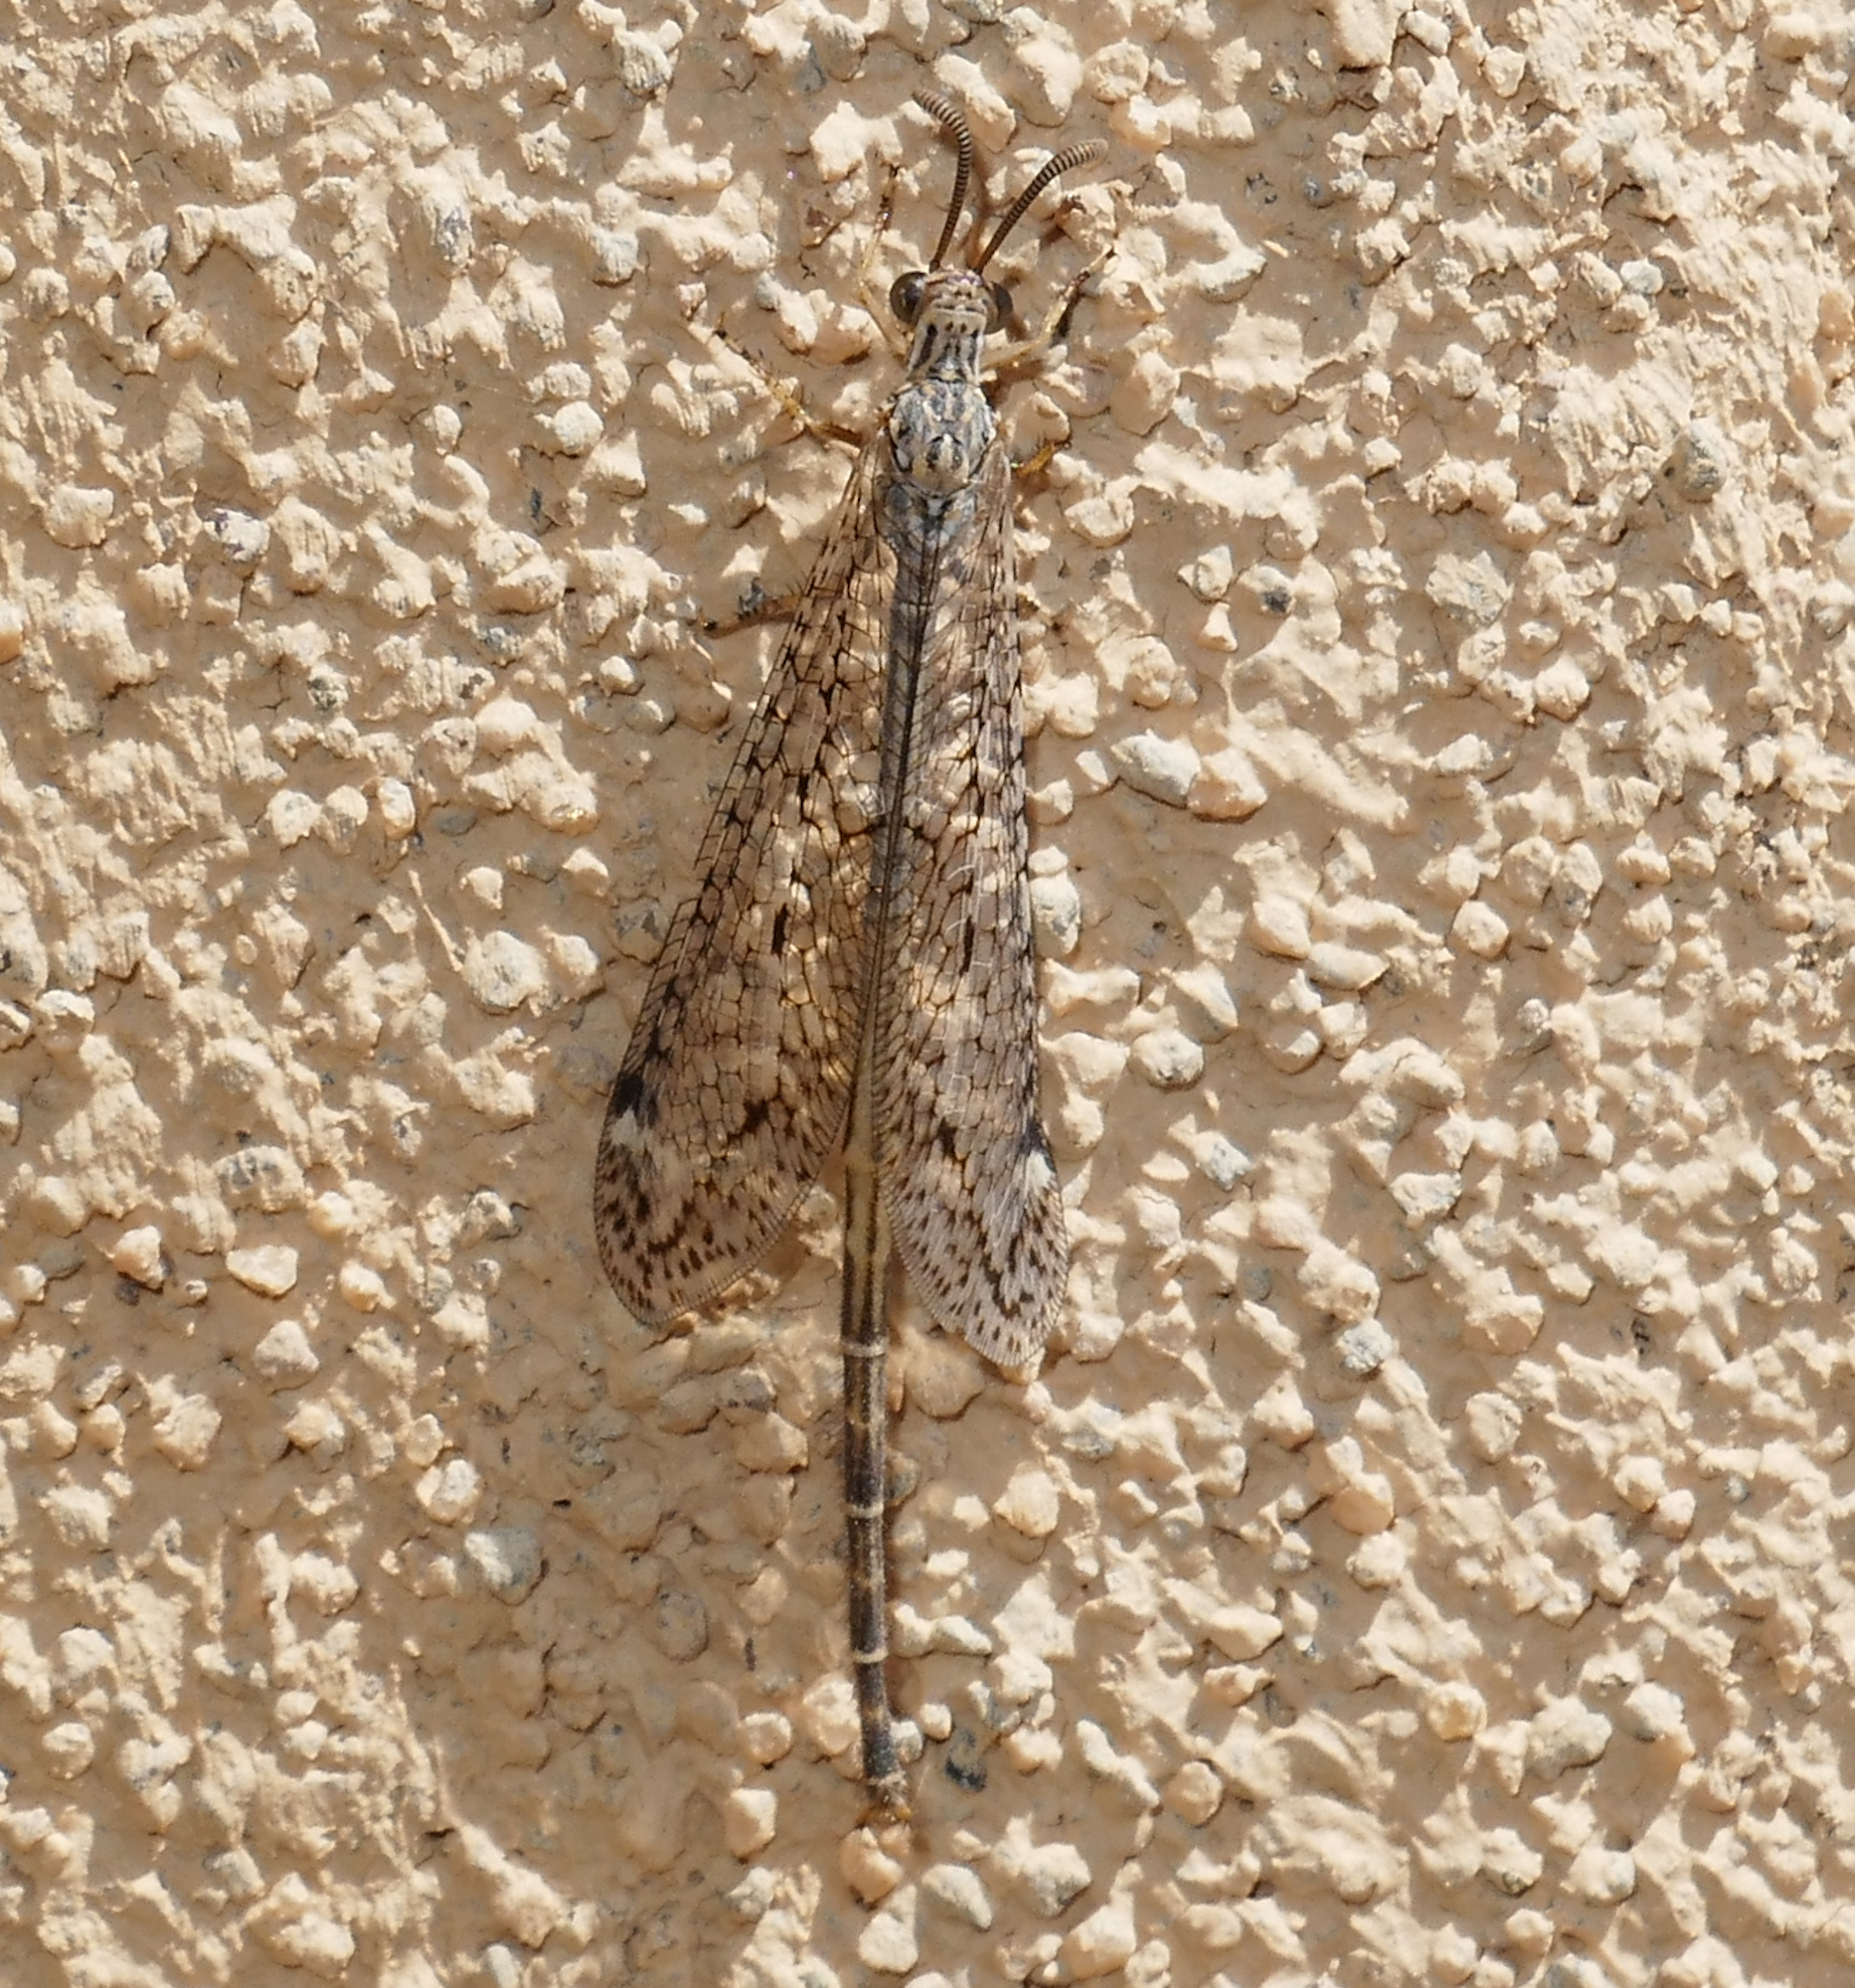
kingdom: Animalia
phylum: Arthropoda
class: Insecta
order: Neuroptera
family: Myrmeleontidae
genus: Scotoleon
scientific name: Scotoleon longipalpis
